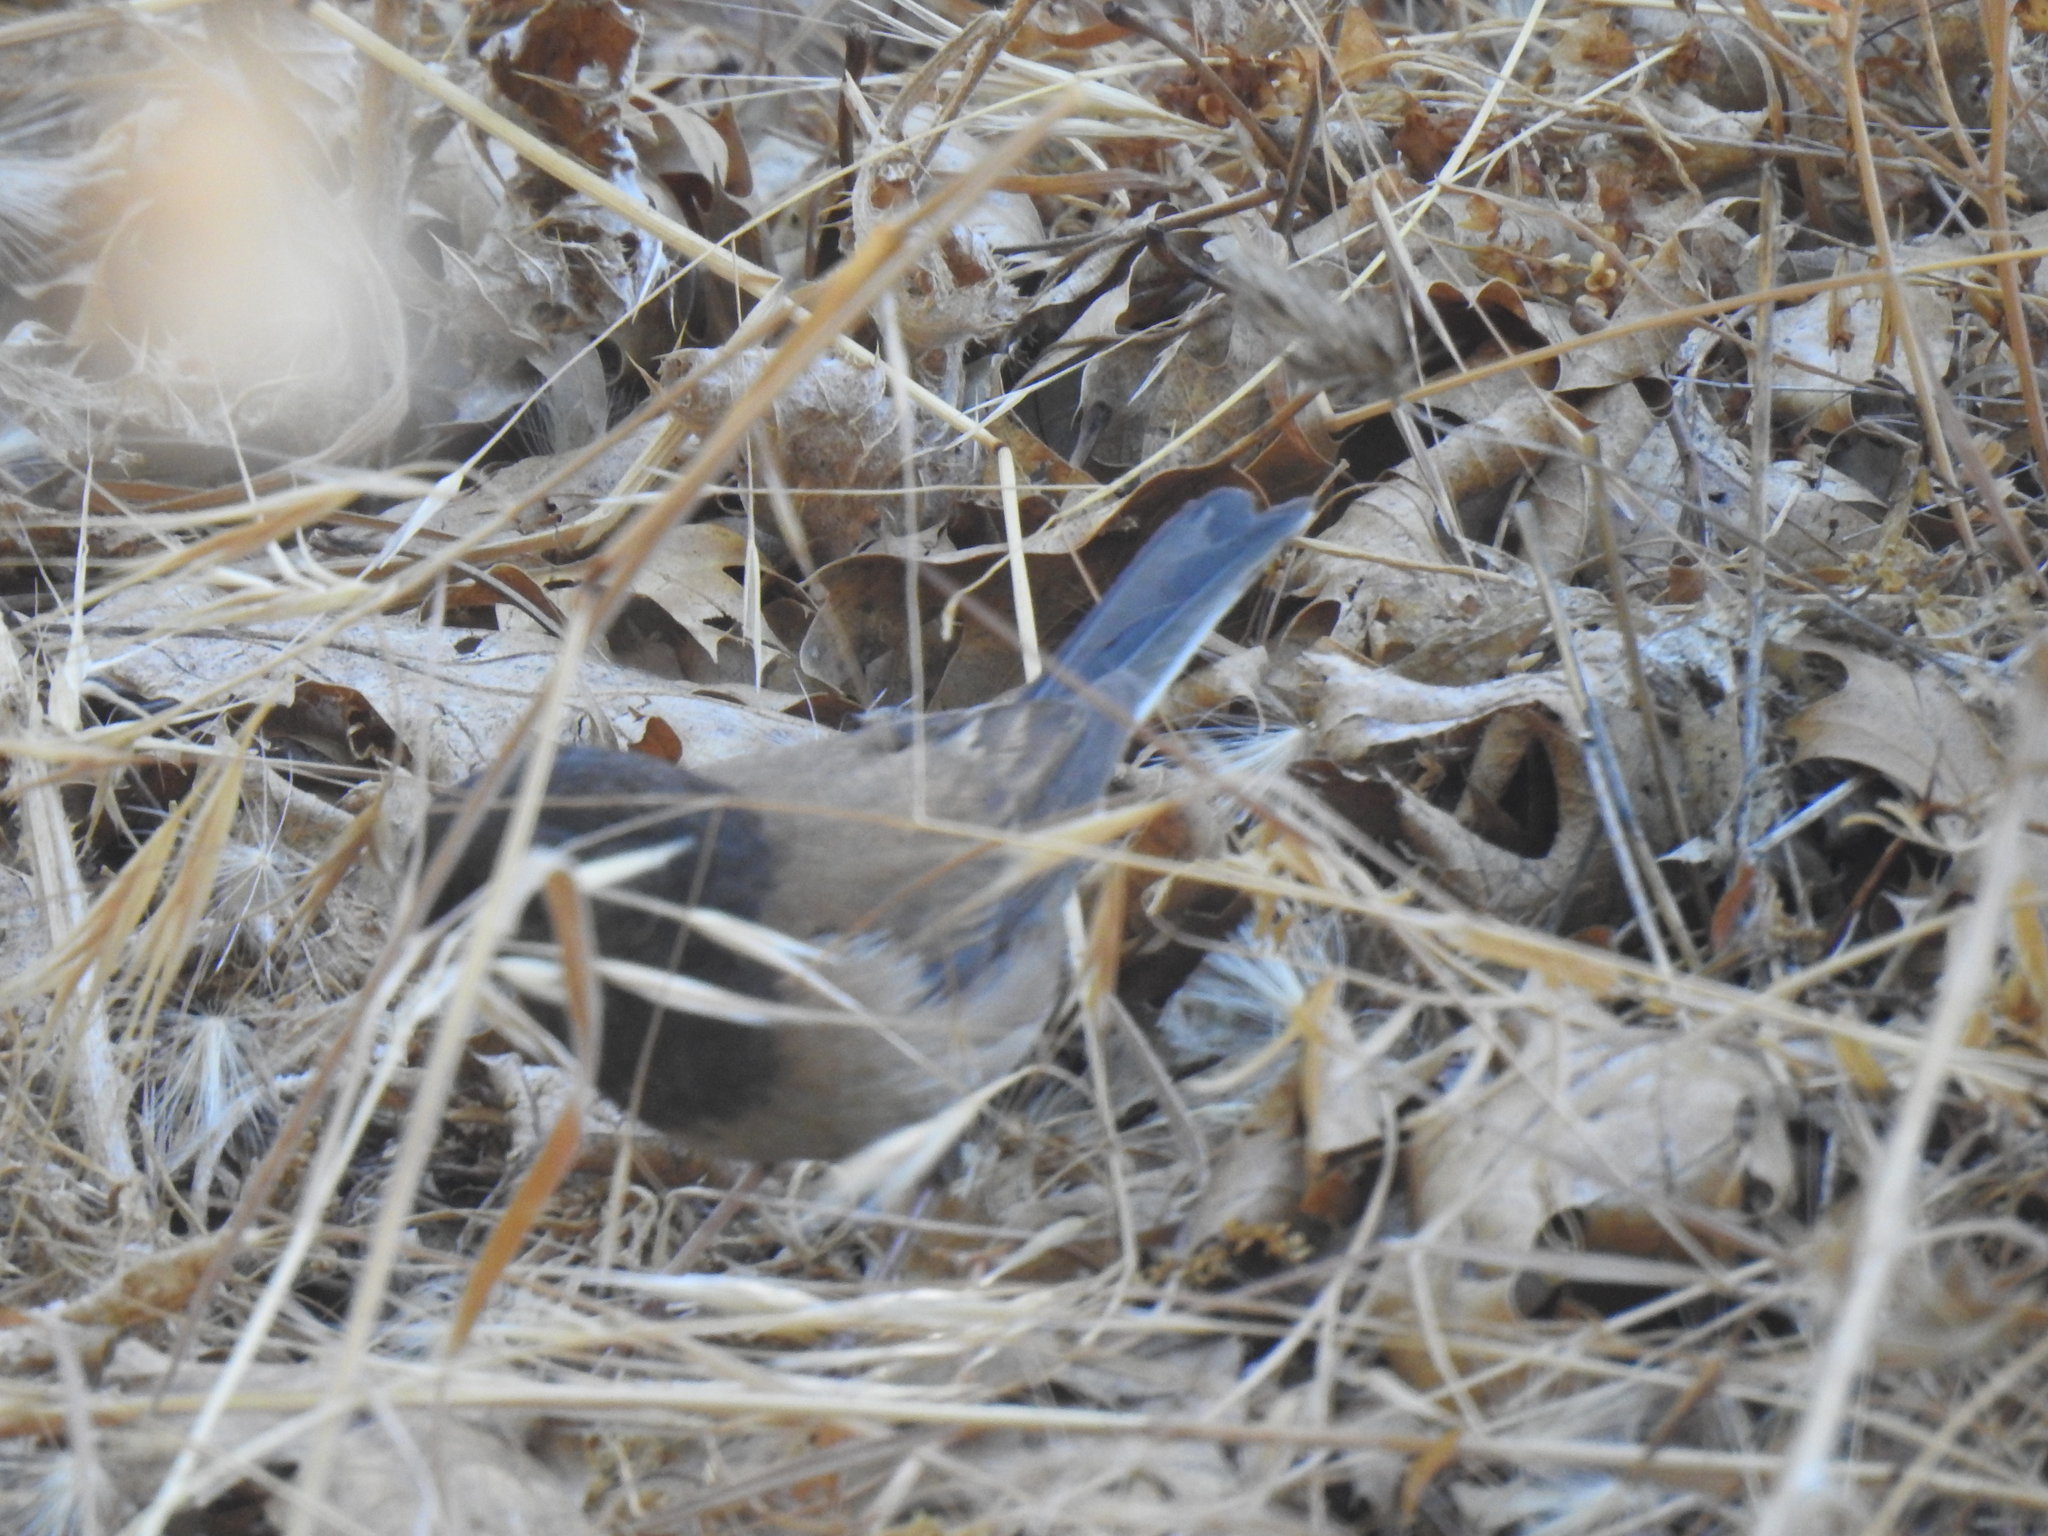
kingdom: Animalia
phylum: Chordata
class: Aves
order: Passeriformes
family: Passerellidae
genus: Junco
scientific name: Junco hyemalis
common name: Dark-eyed junco
